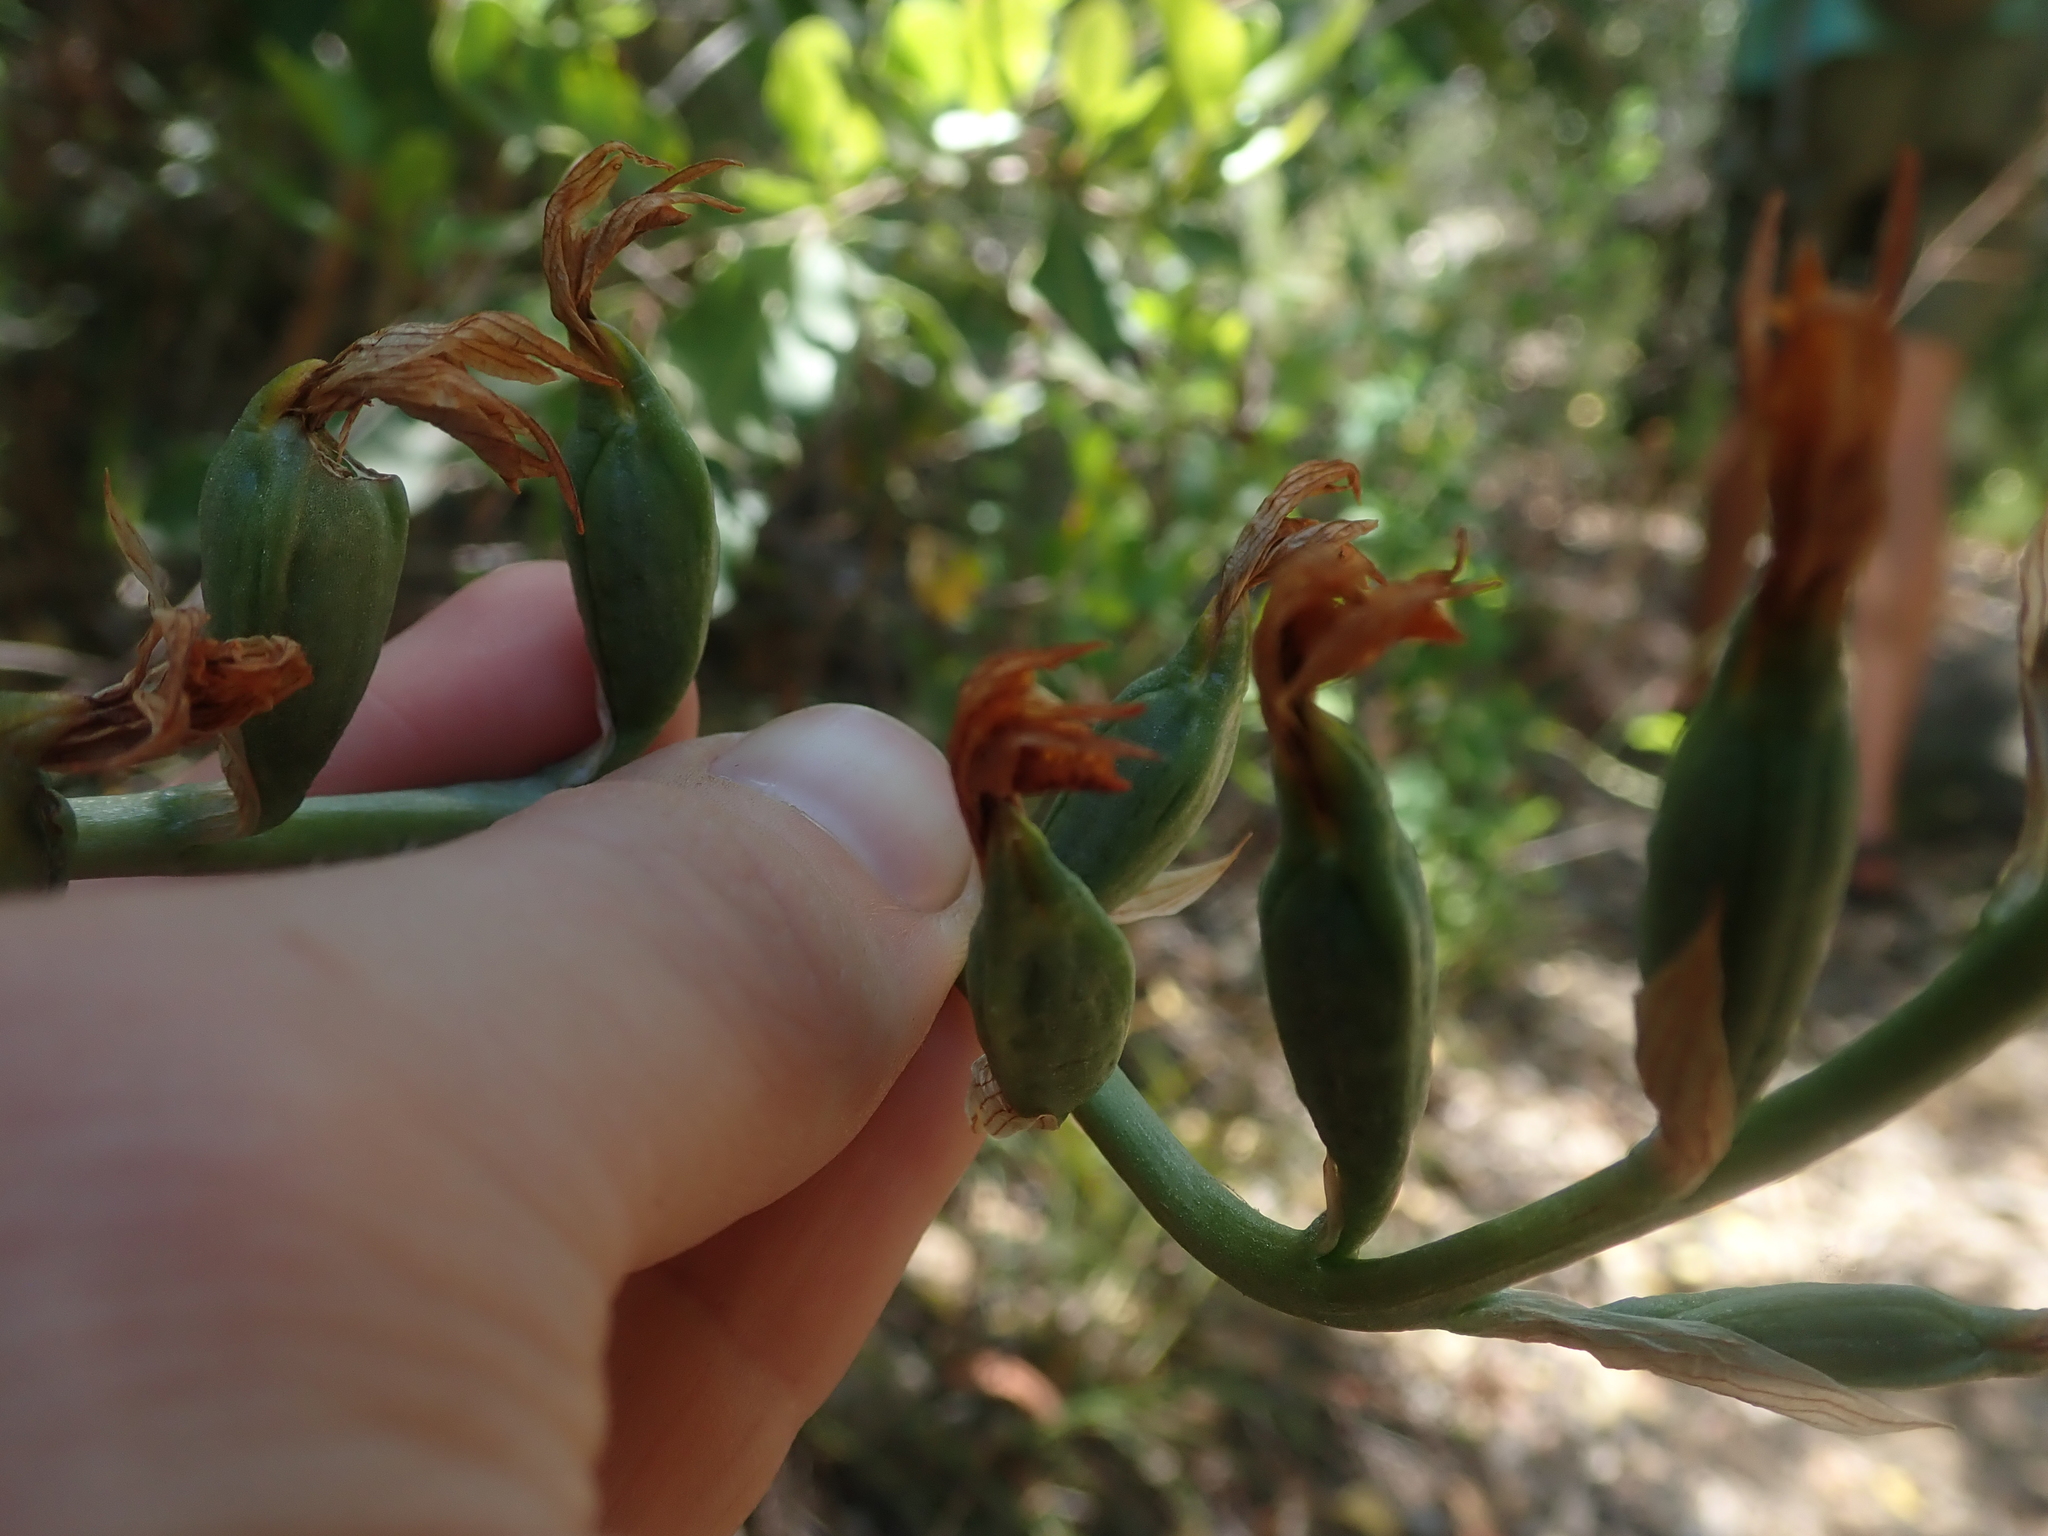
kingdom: Plantae
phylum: Tracheophyta
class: Liliopsida
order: Asparagales
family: Orchidaceae
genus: Chloraea
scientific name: Chloraea chrysantha
